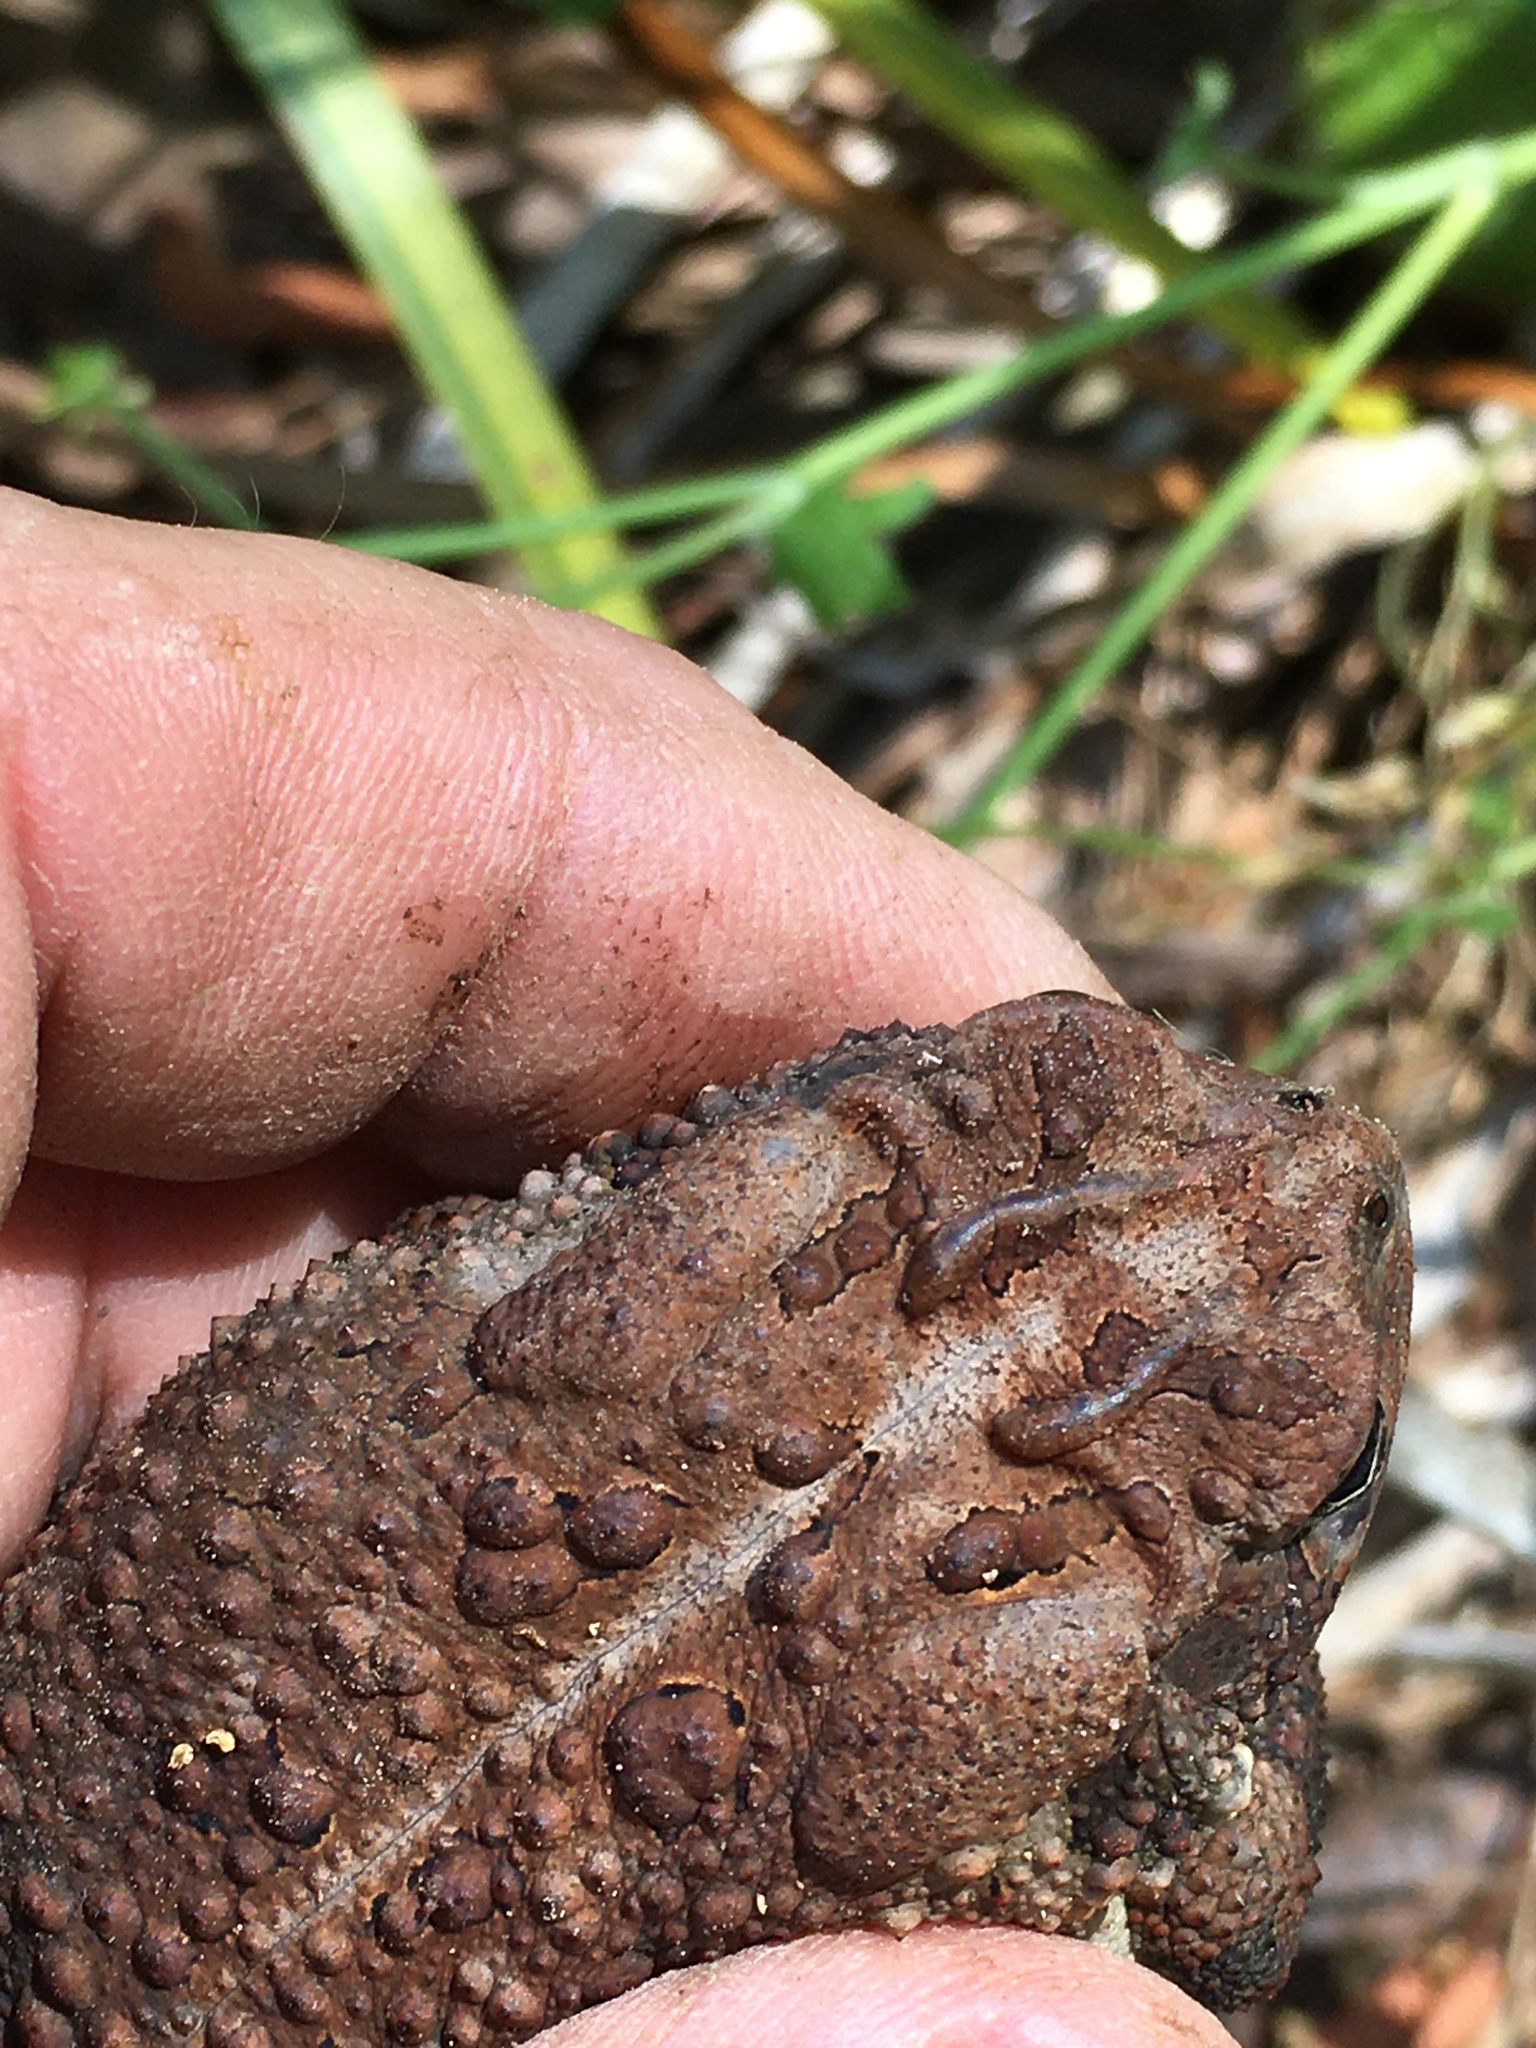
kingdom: Animalia
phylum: Chordata
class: Amphibia
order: Anura
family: Bufonidae
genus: Anaxyrus
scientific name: Anaxyrus terrestris
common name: Southern toad
